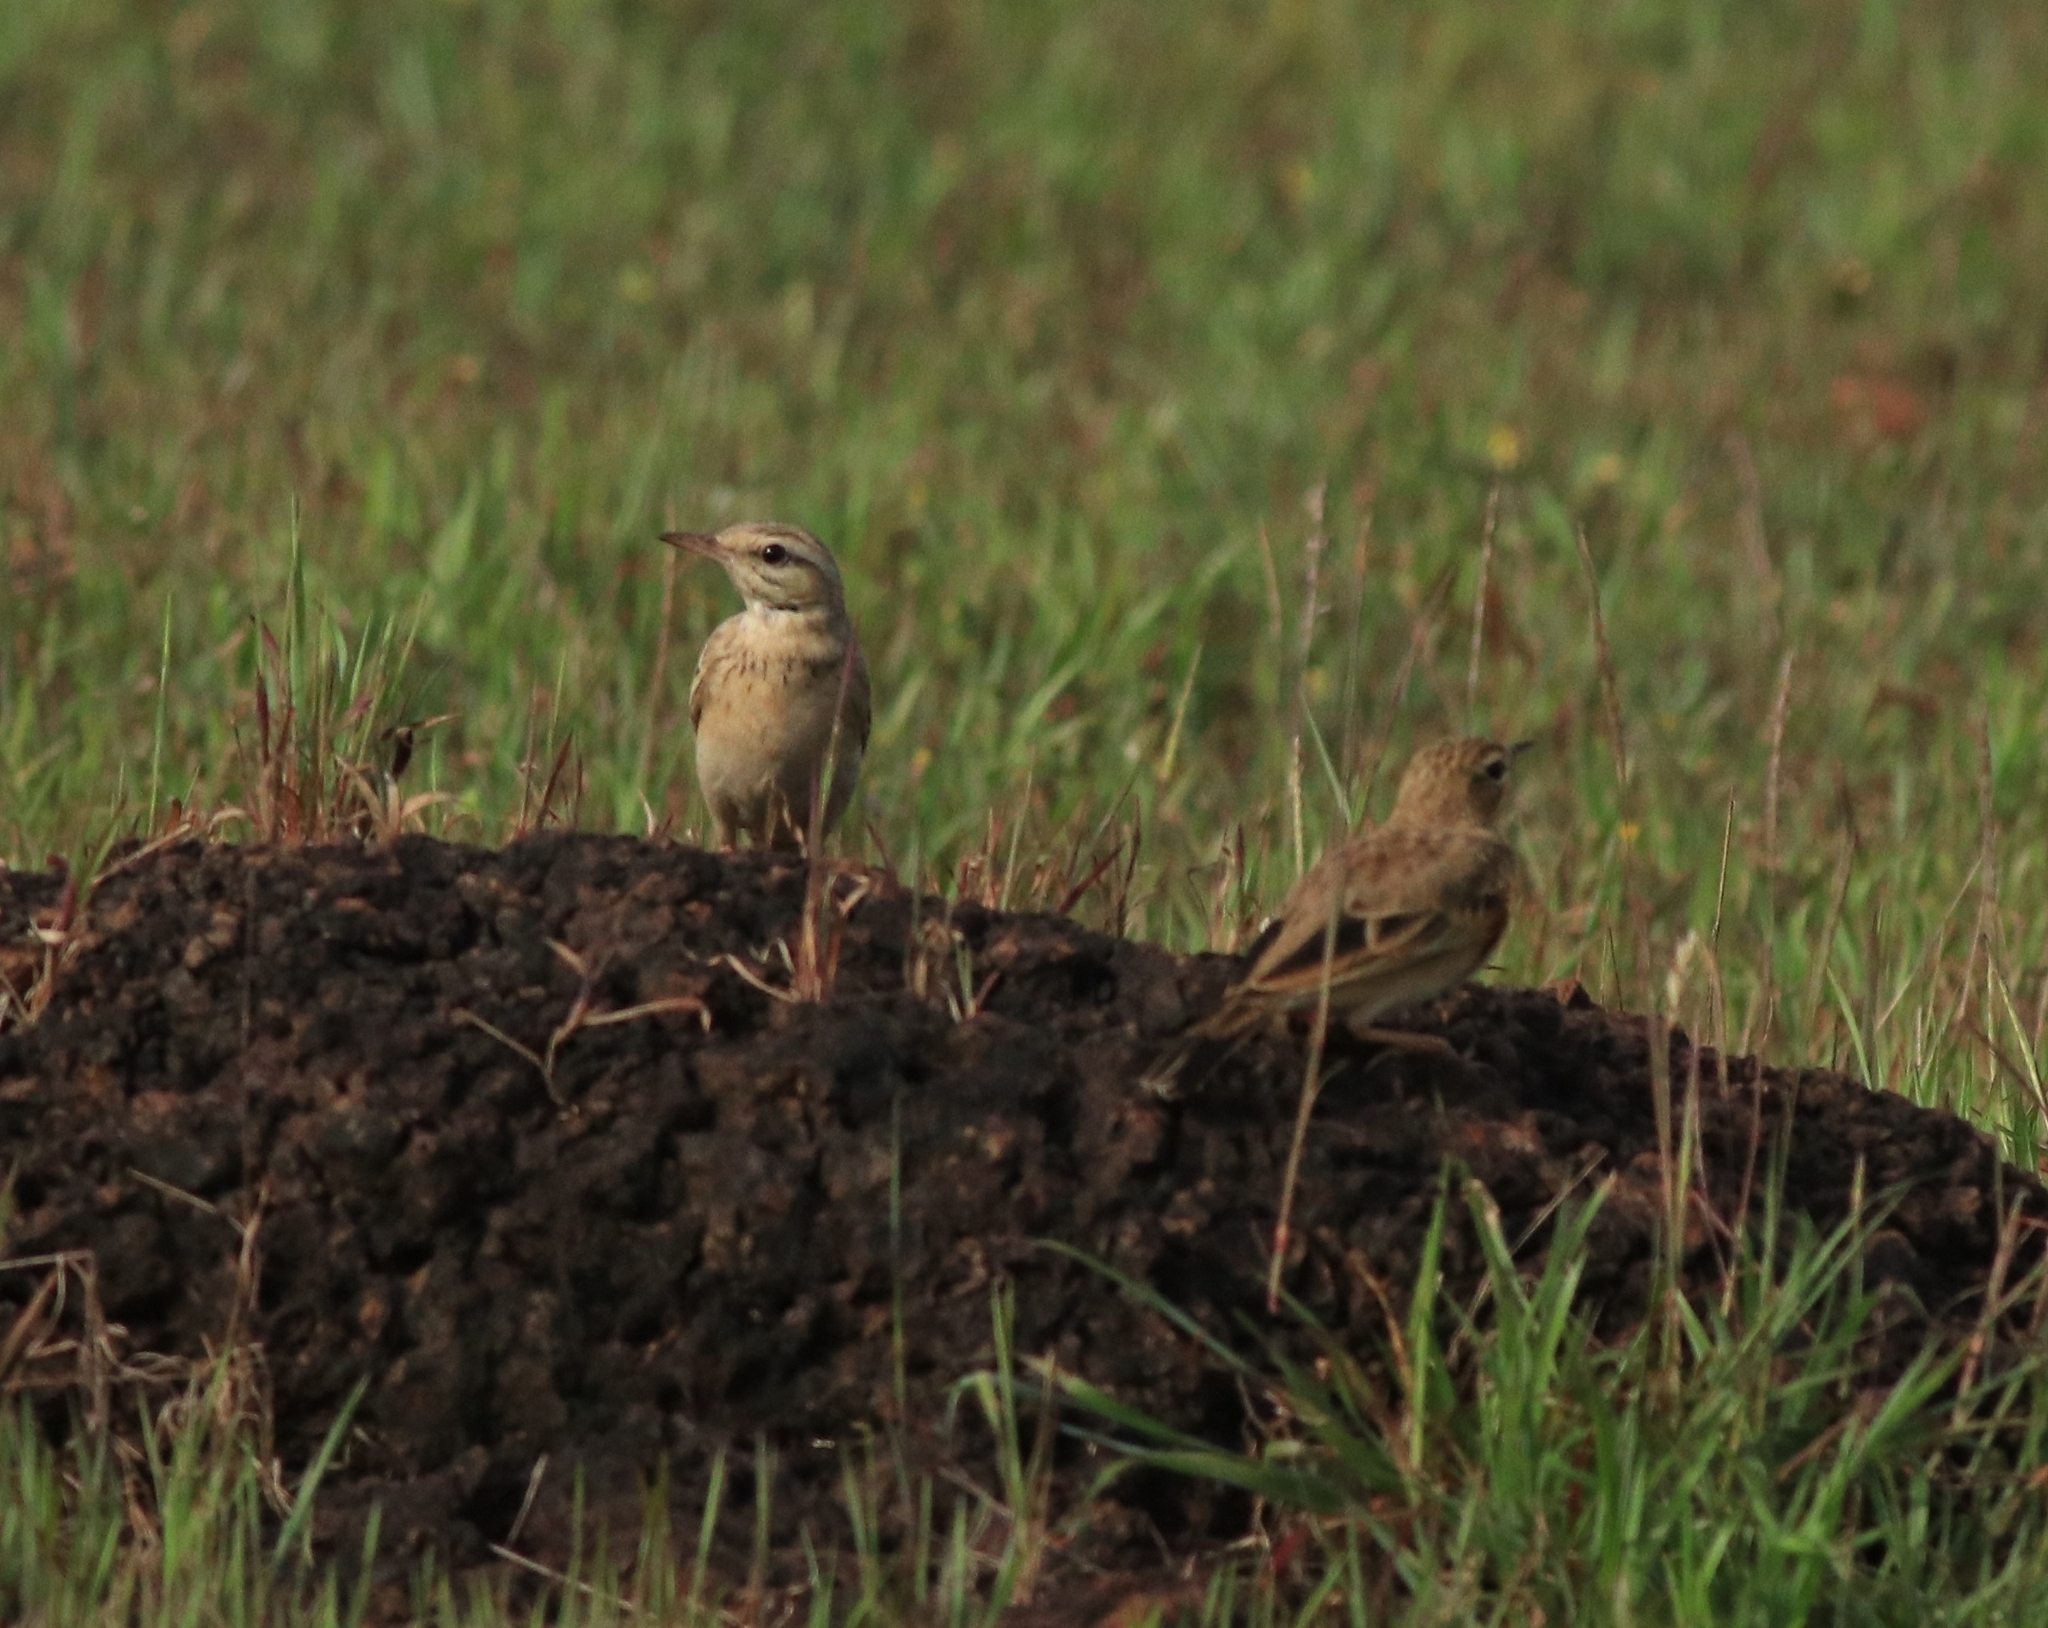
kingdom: Animalia
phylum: Chordata
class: Aves
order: Passeriformes
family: Motacillidae
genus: Anthus
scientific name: Anthus rufulus
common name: Paddyfield pipit
